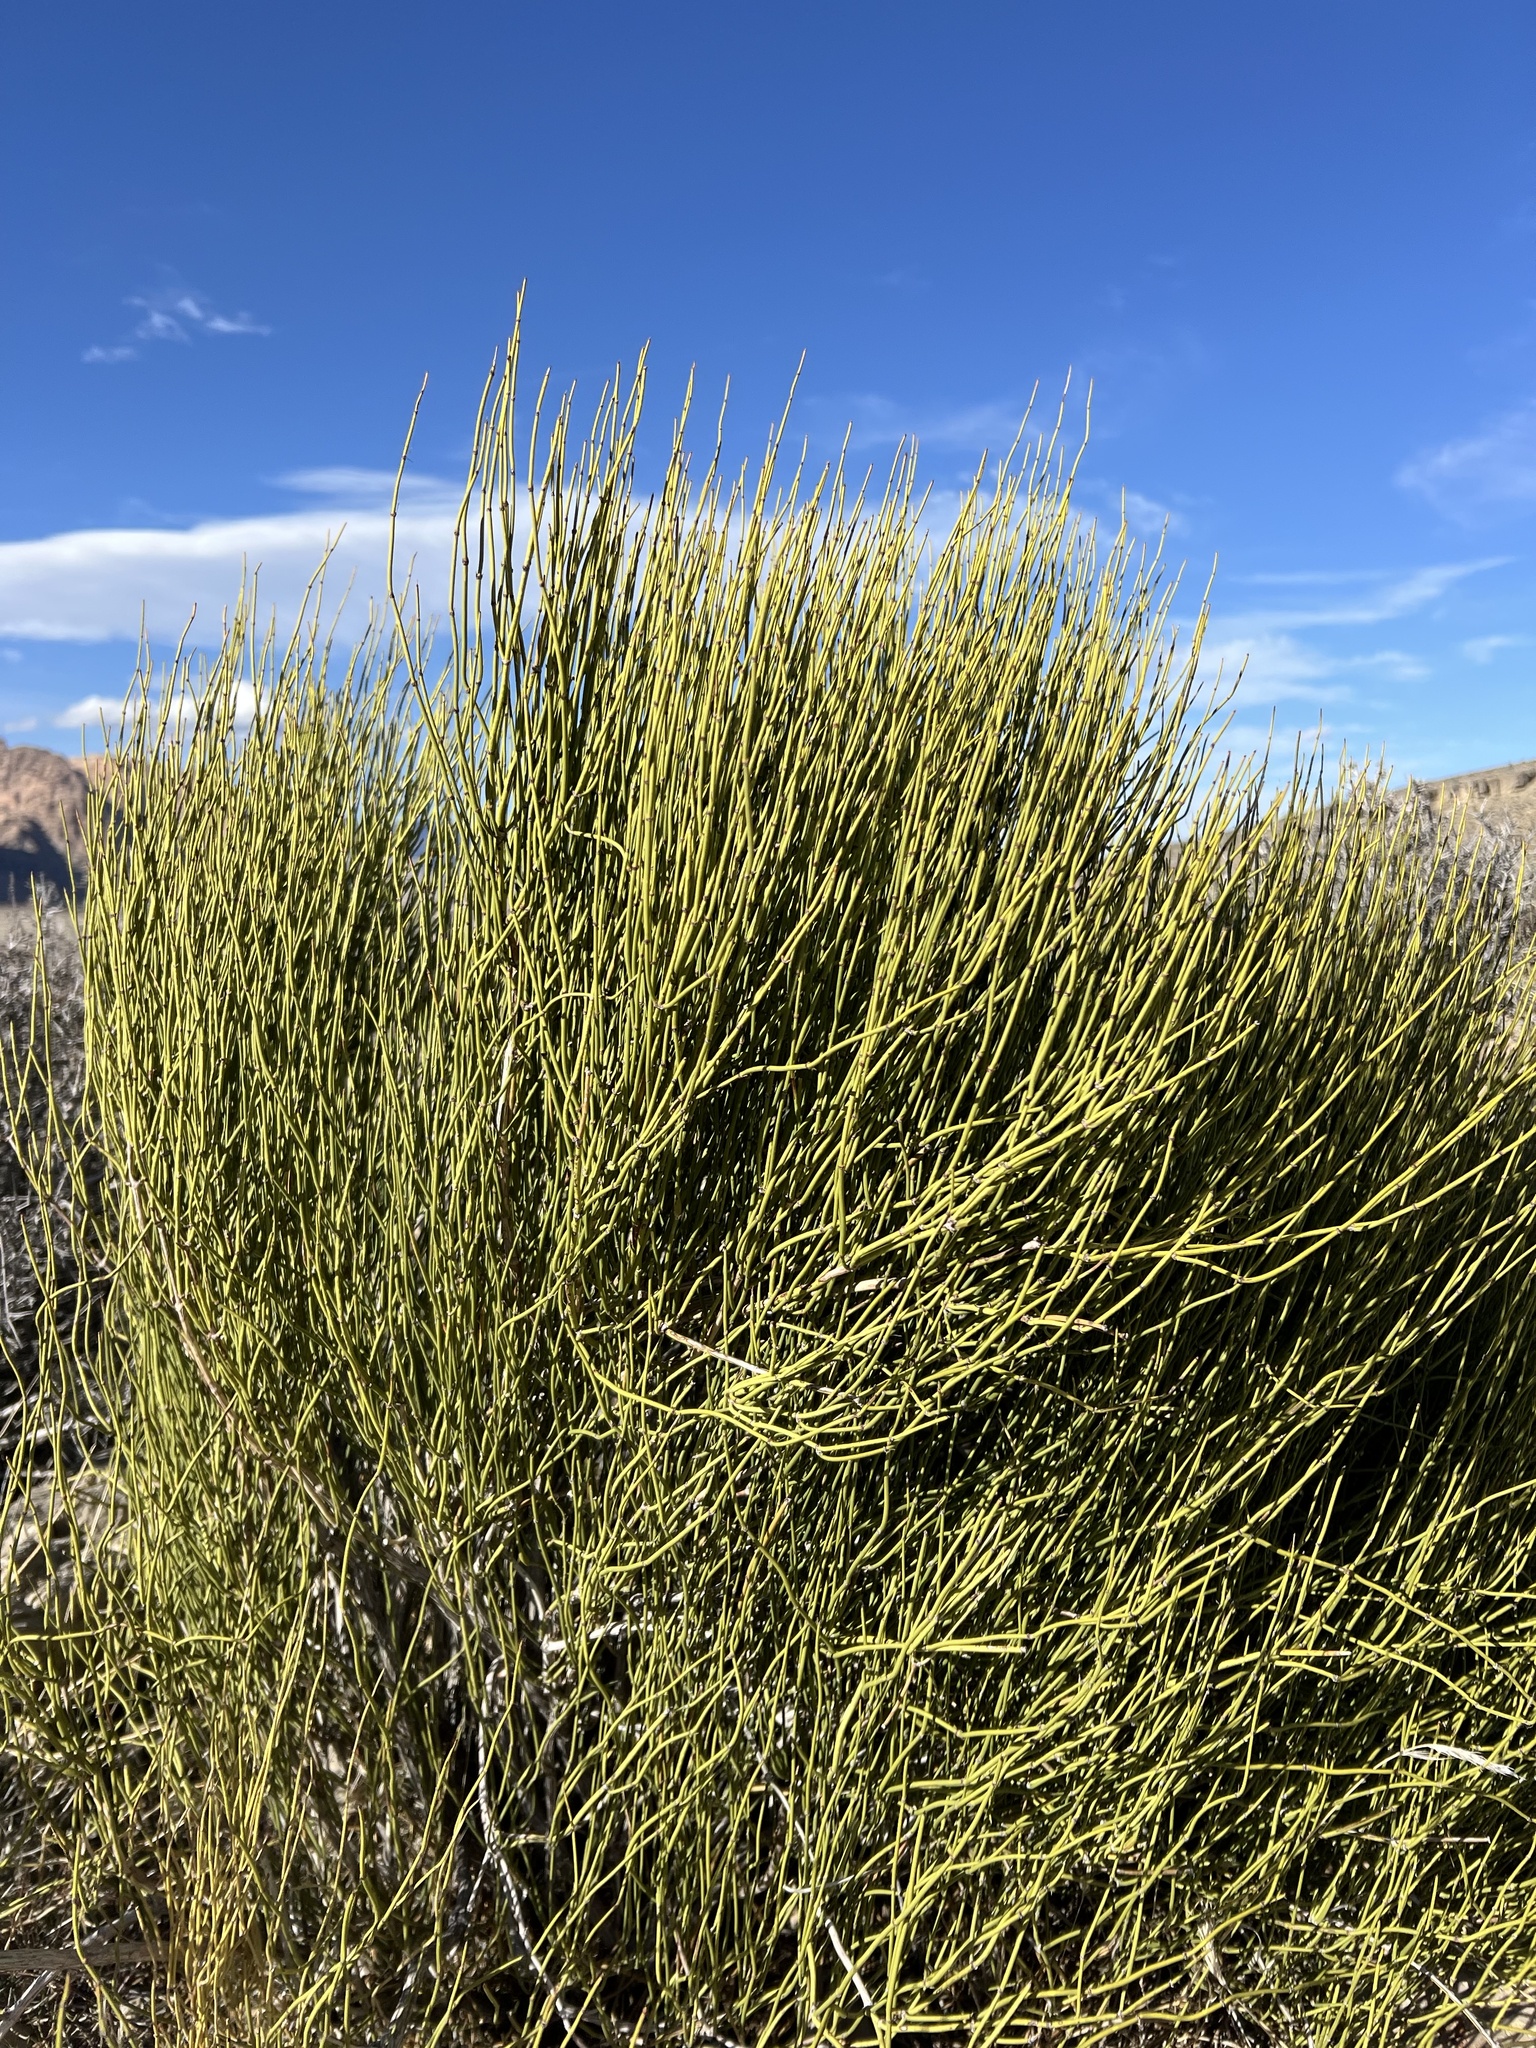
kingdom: Plantae
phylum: Tracheophyta
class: Gnetopsida
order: Ephedrales
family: Ephedraceae
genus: Ephedra
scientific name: Ephedra viridis
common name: Green ephedra
